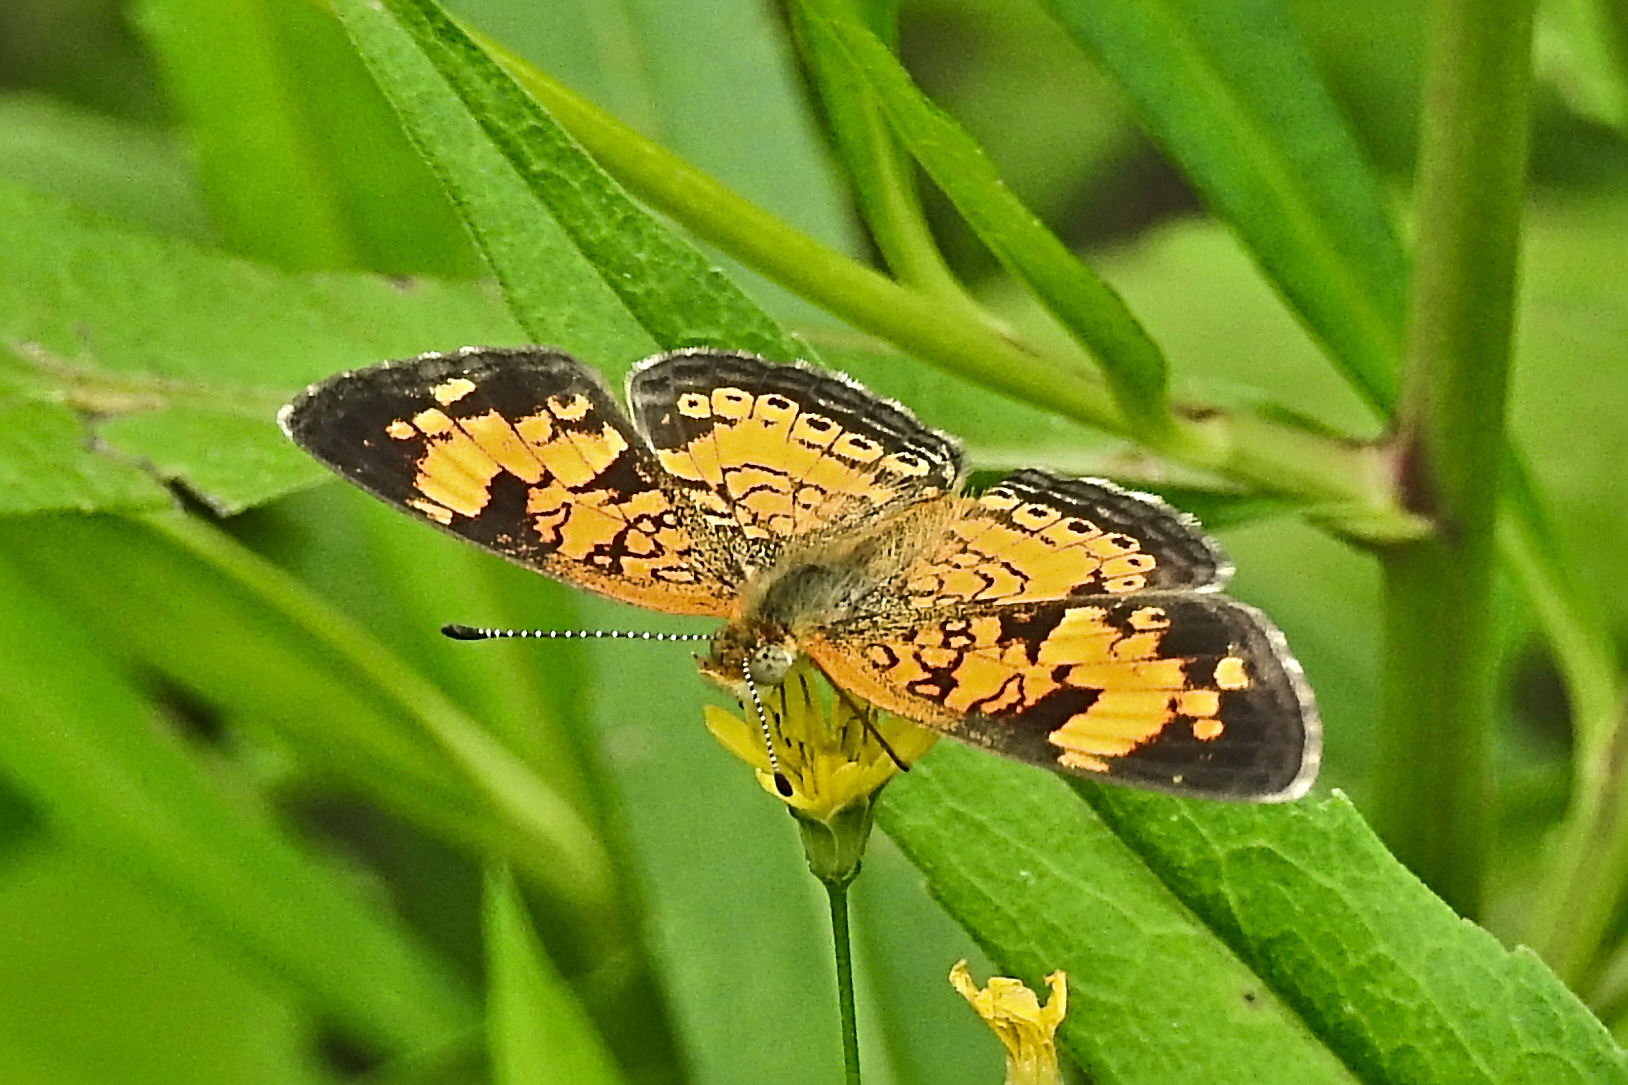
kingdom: Animalia
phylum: Arthropoda
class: Insecta
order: Lepidoptera
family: Nymphalidae
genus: Phyciodes
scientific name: Phyciodes tharos
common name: Pearl crescent
